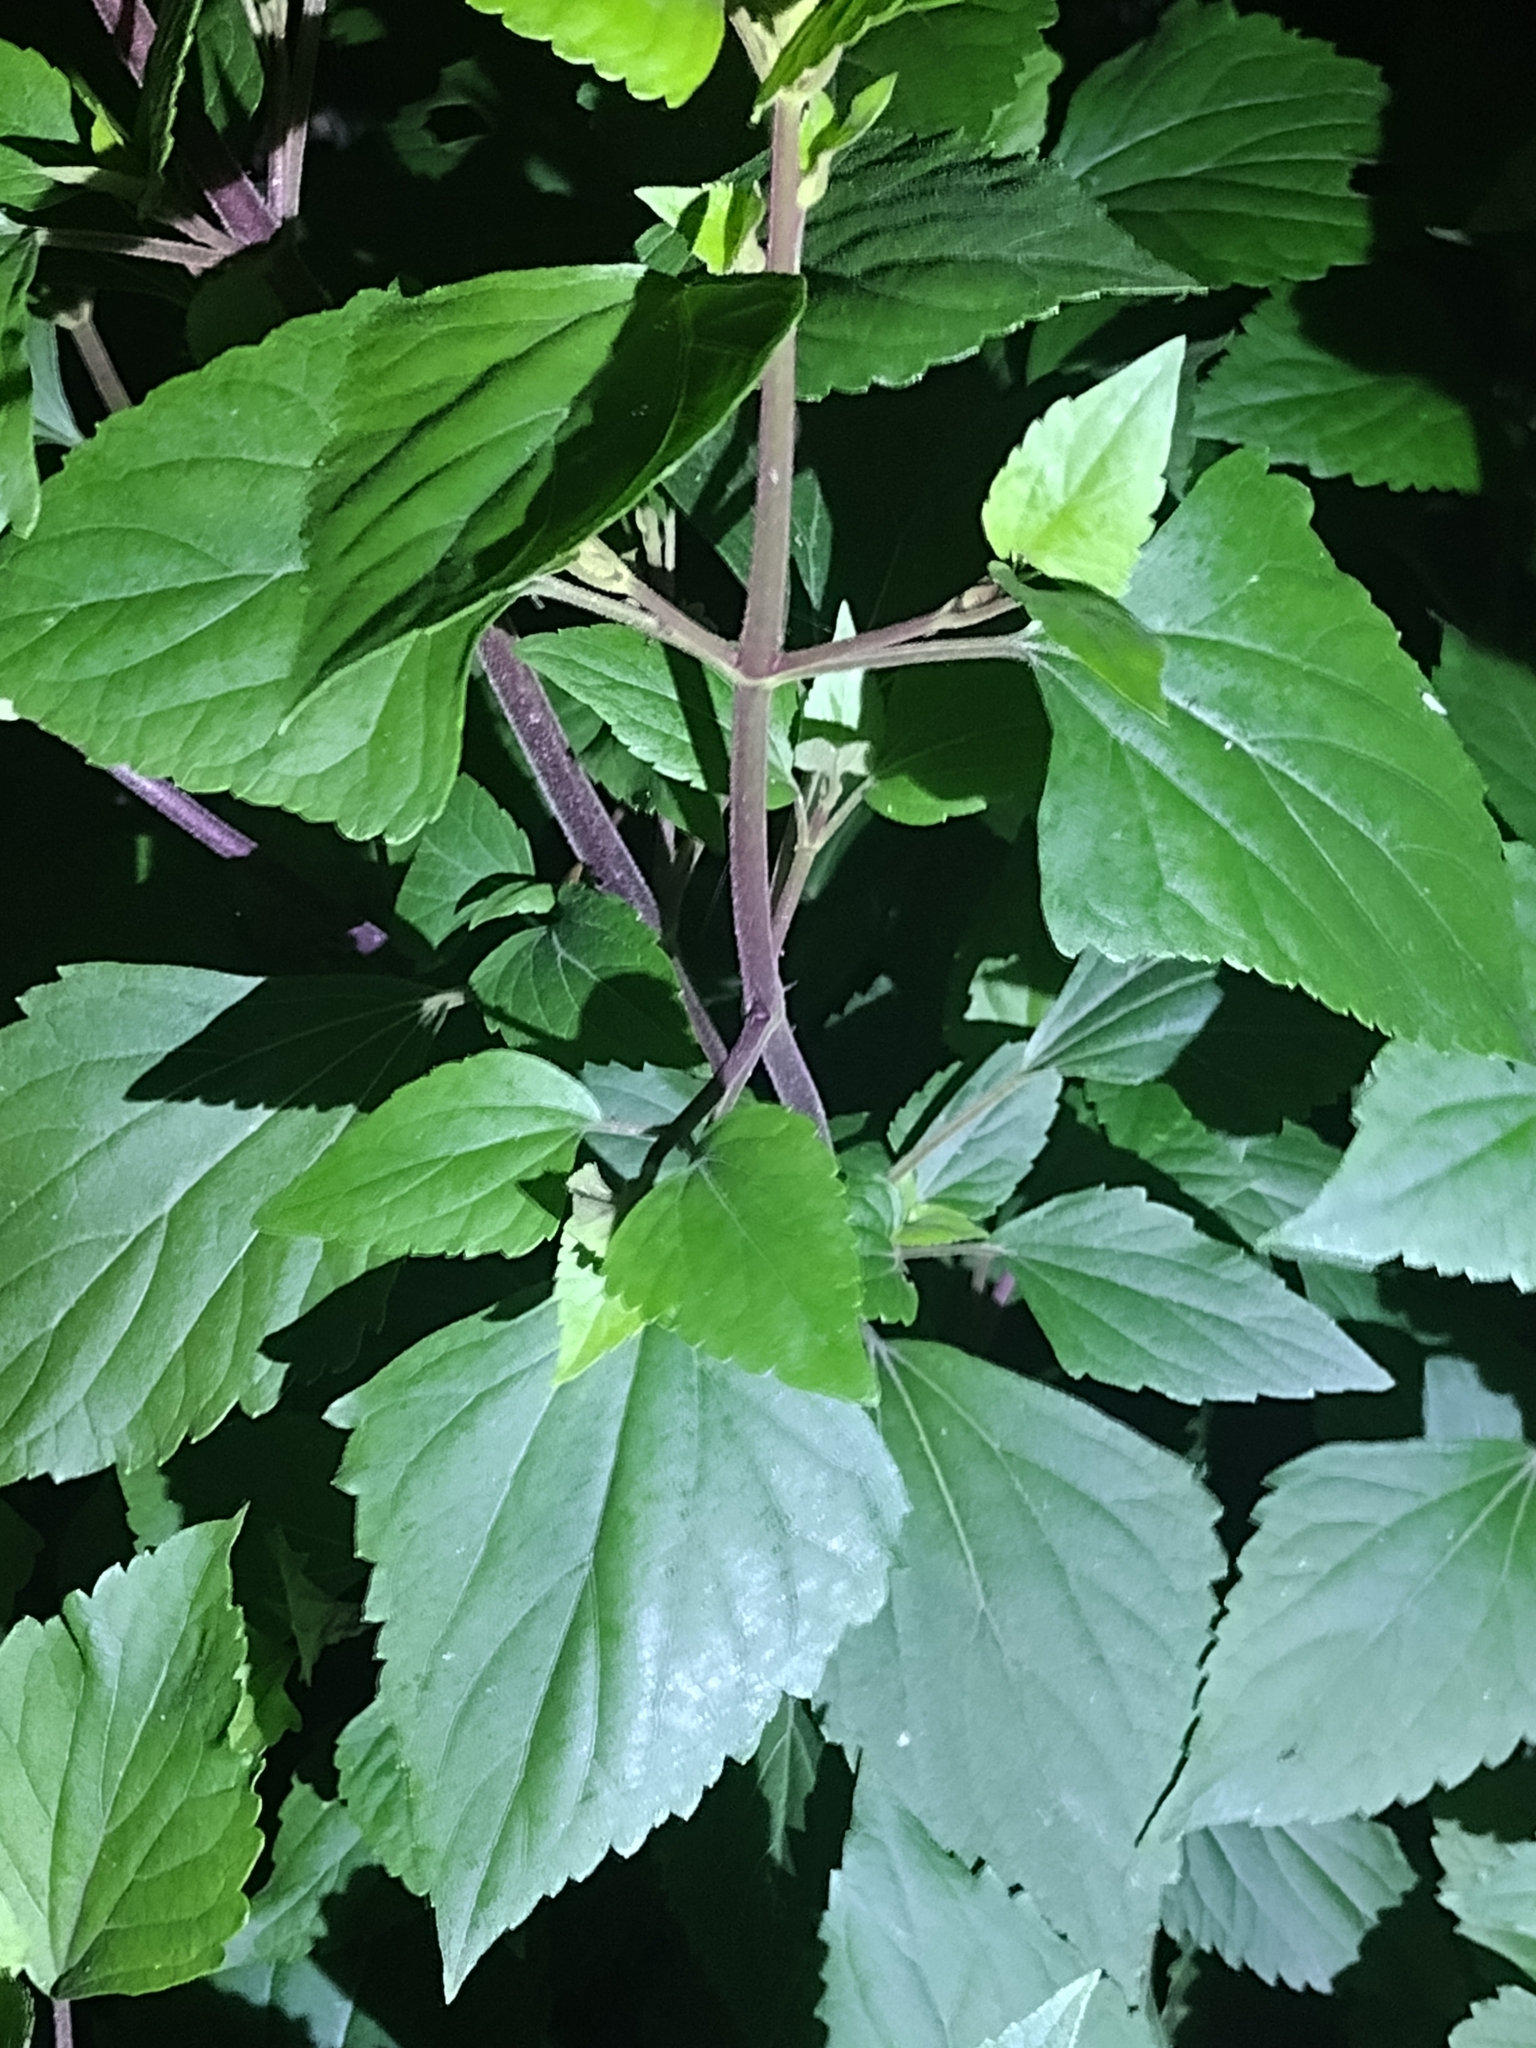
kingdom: Plantae
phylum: Tracheophyta
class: Magnoliopsida
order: Asterales
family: Asteraceae
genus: Ageratina
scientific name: Ageratina adenophora
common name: Sticky snakeroot
